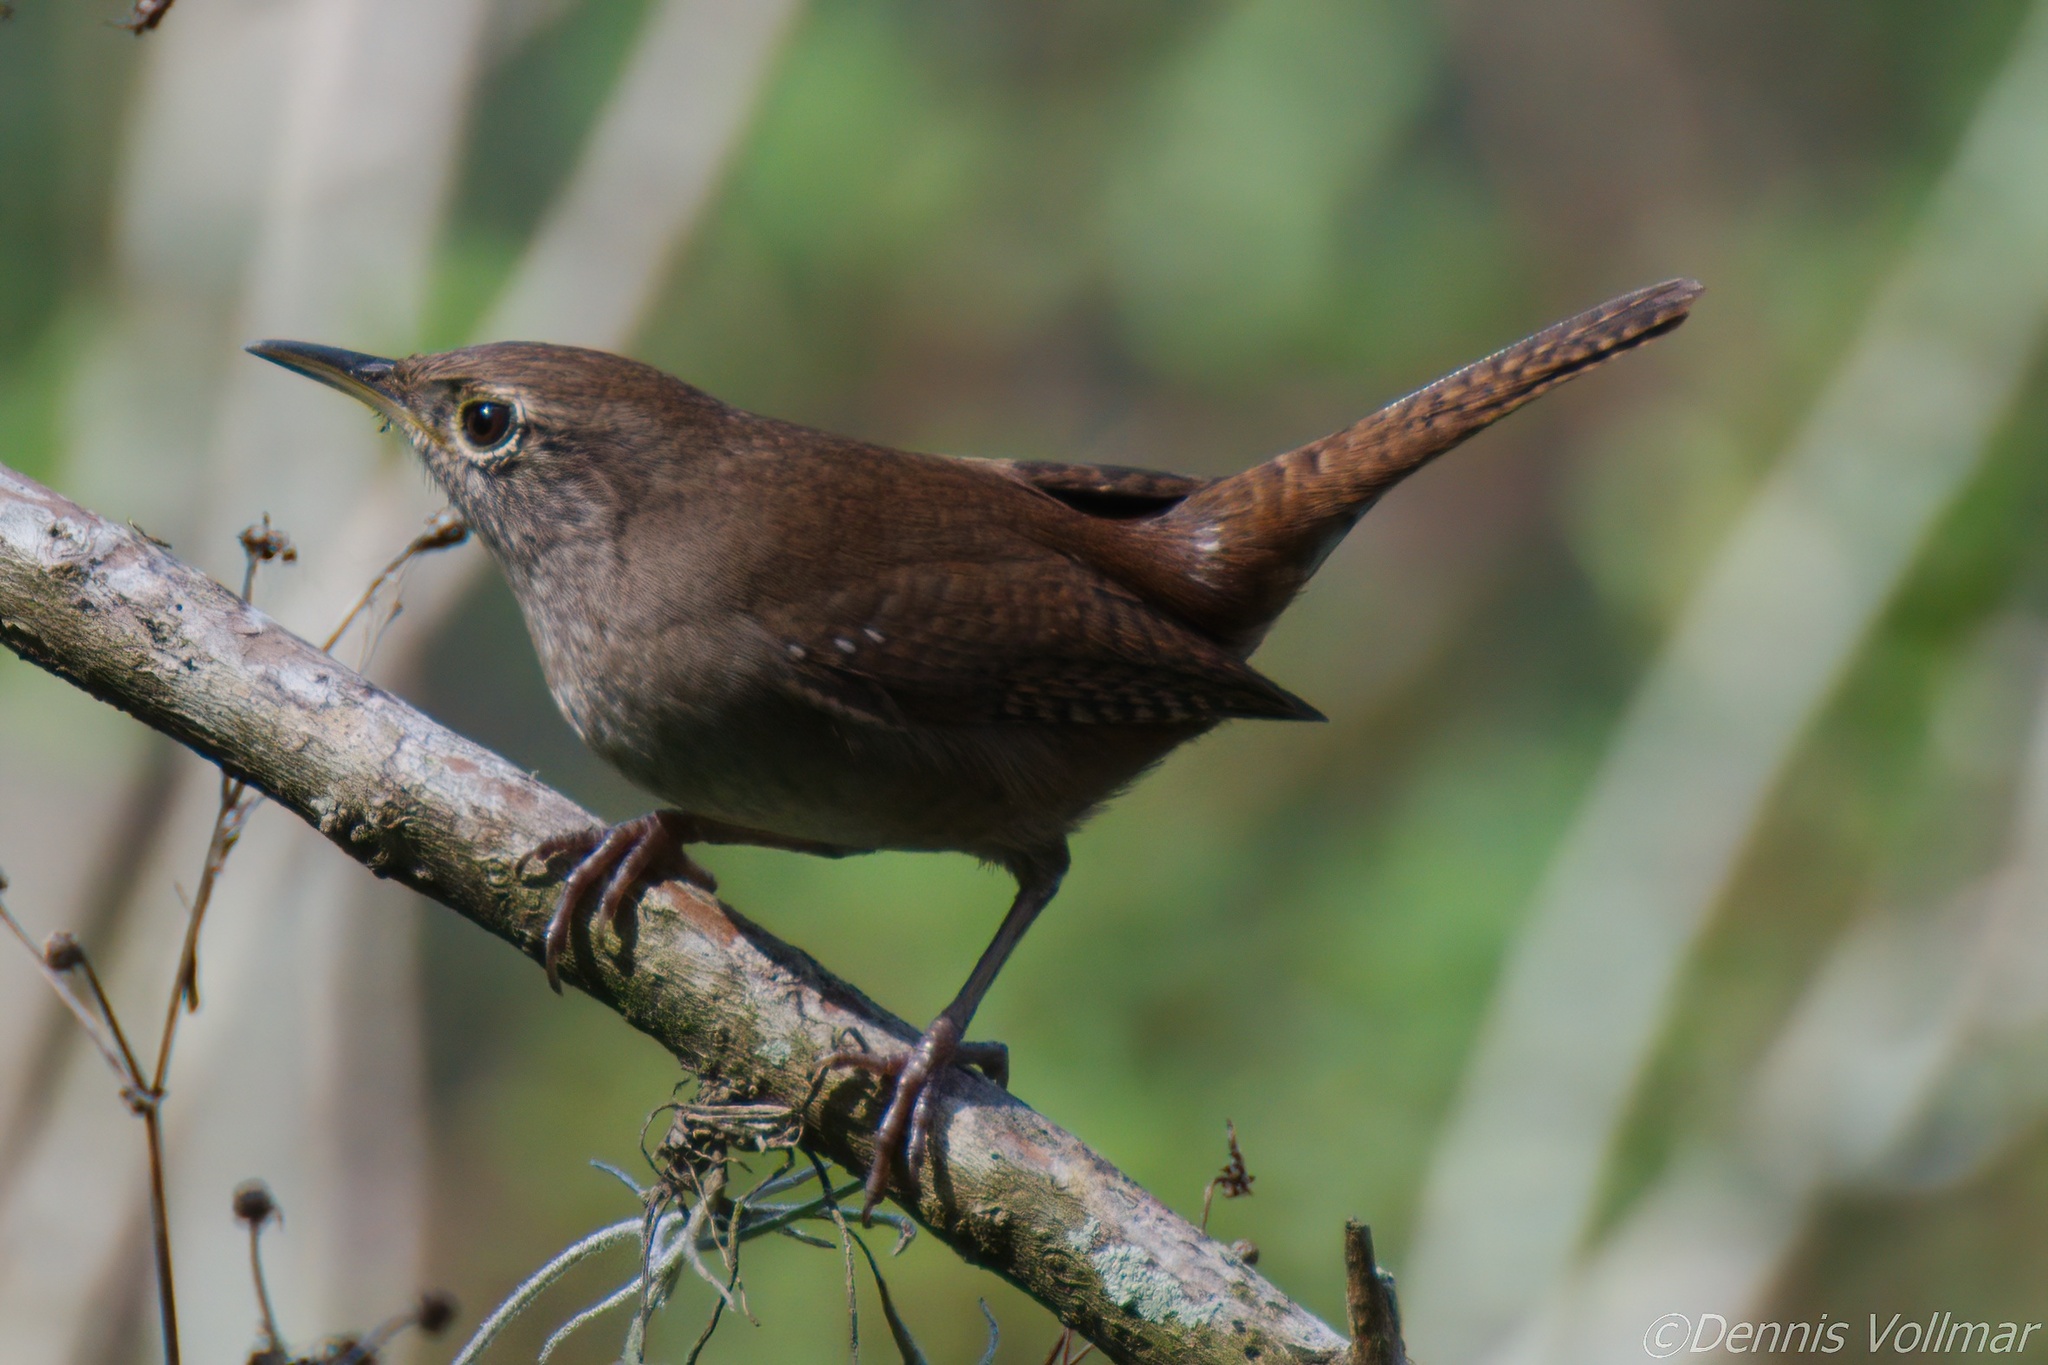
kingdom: Animalia
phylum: Chordata
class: Aves
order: Passeriformes
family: Troglodytidae
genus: Troglodytes
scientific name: Troglodytes aedon
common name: House wren
